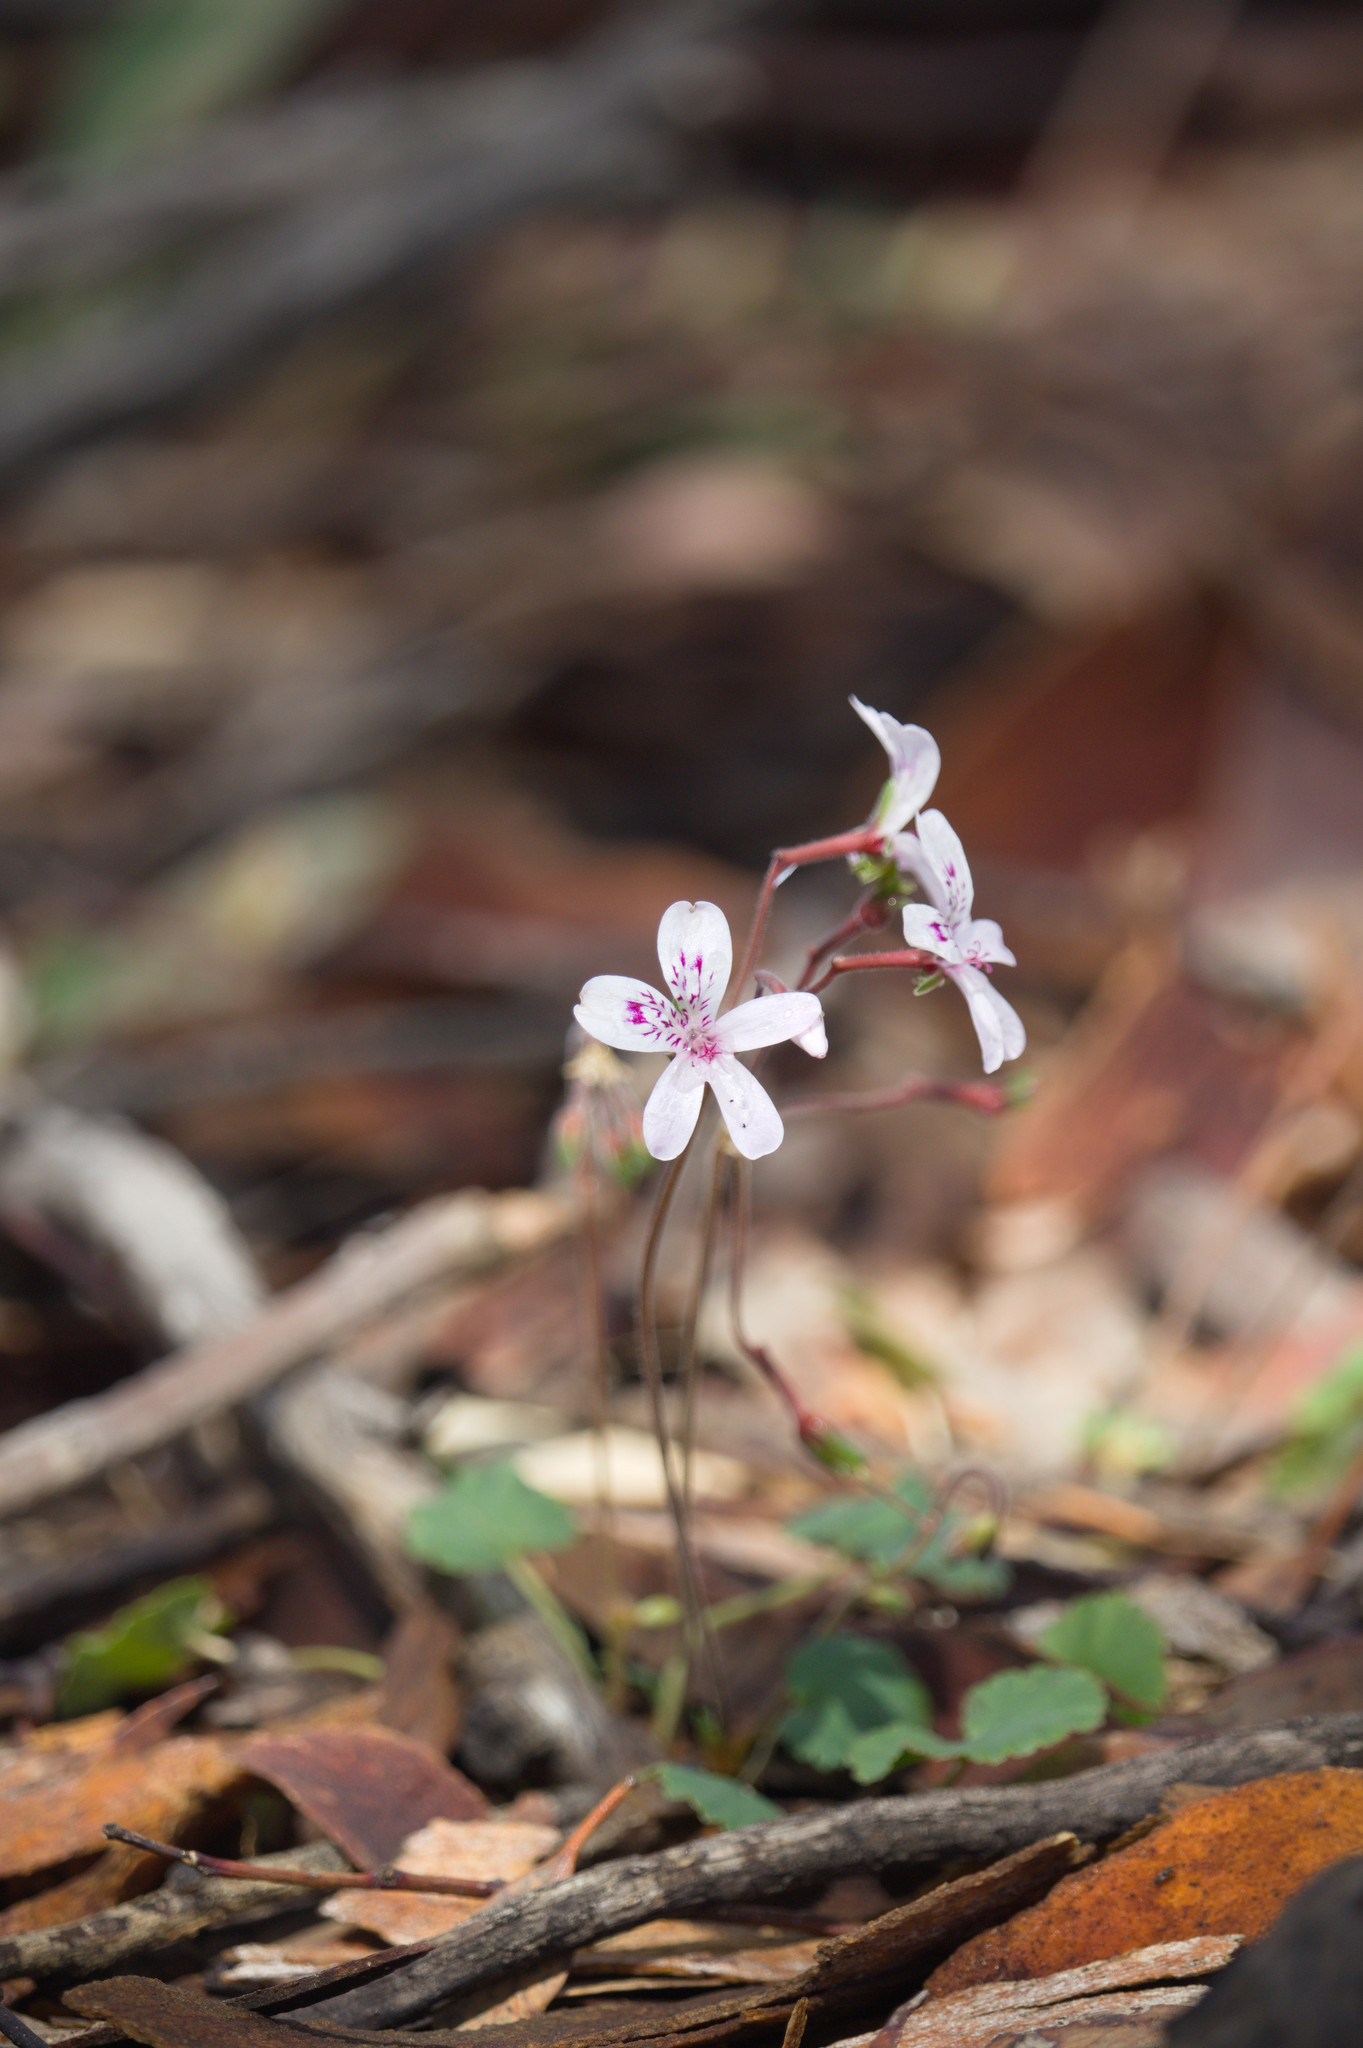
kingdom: Plantae
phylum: Tracheophyta
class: Magnoliopsida
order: Geraniales
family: Geraniaceae
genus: Pelargonium
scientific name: Pelargonium havlasae
